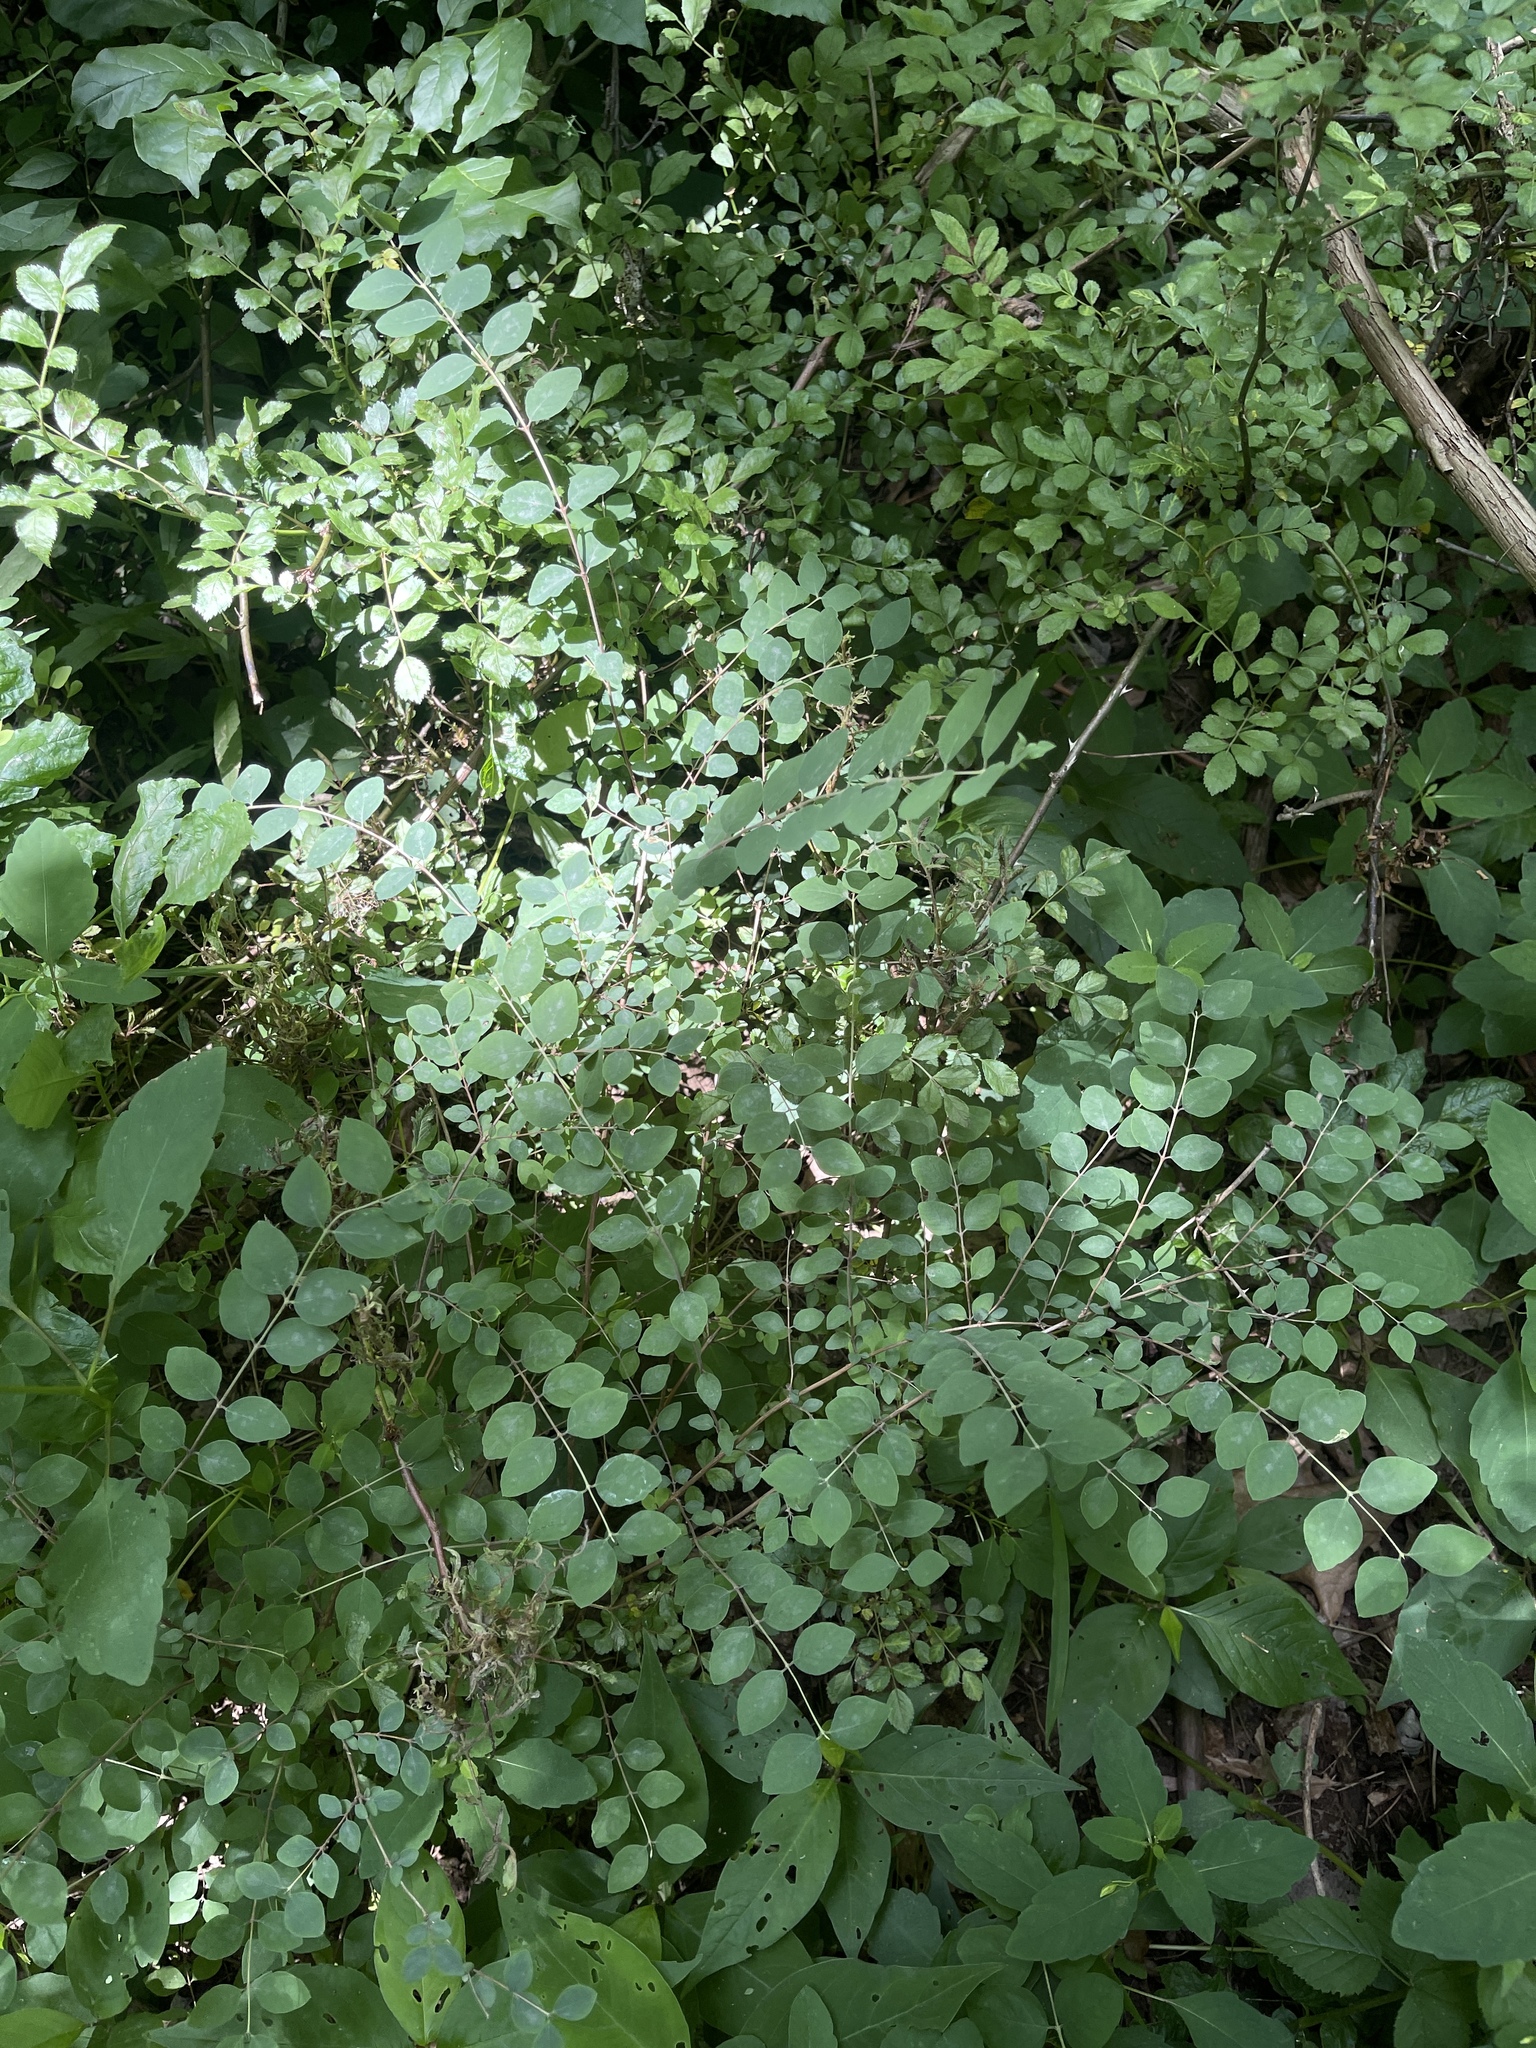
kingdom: Plantae
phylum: Tracheophyta
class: Magnoliopsida
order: Dipsacales
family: Caprifoliaceae
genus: Symphoricarpos
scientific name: Symphoricarpos orbiculatus
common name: Coralberry
